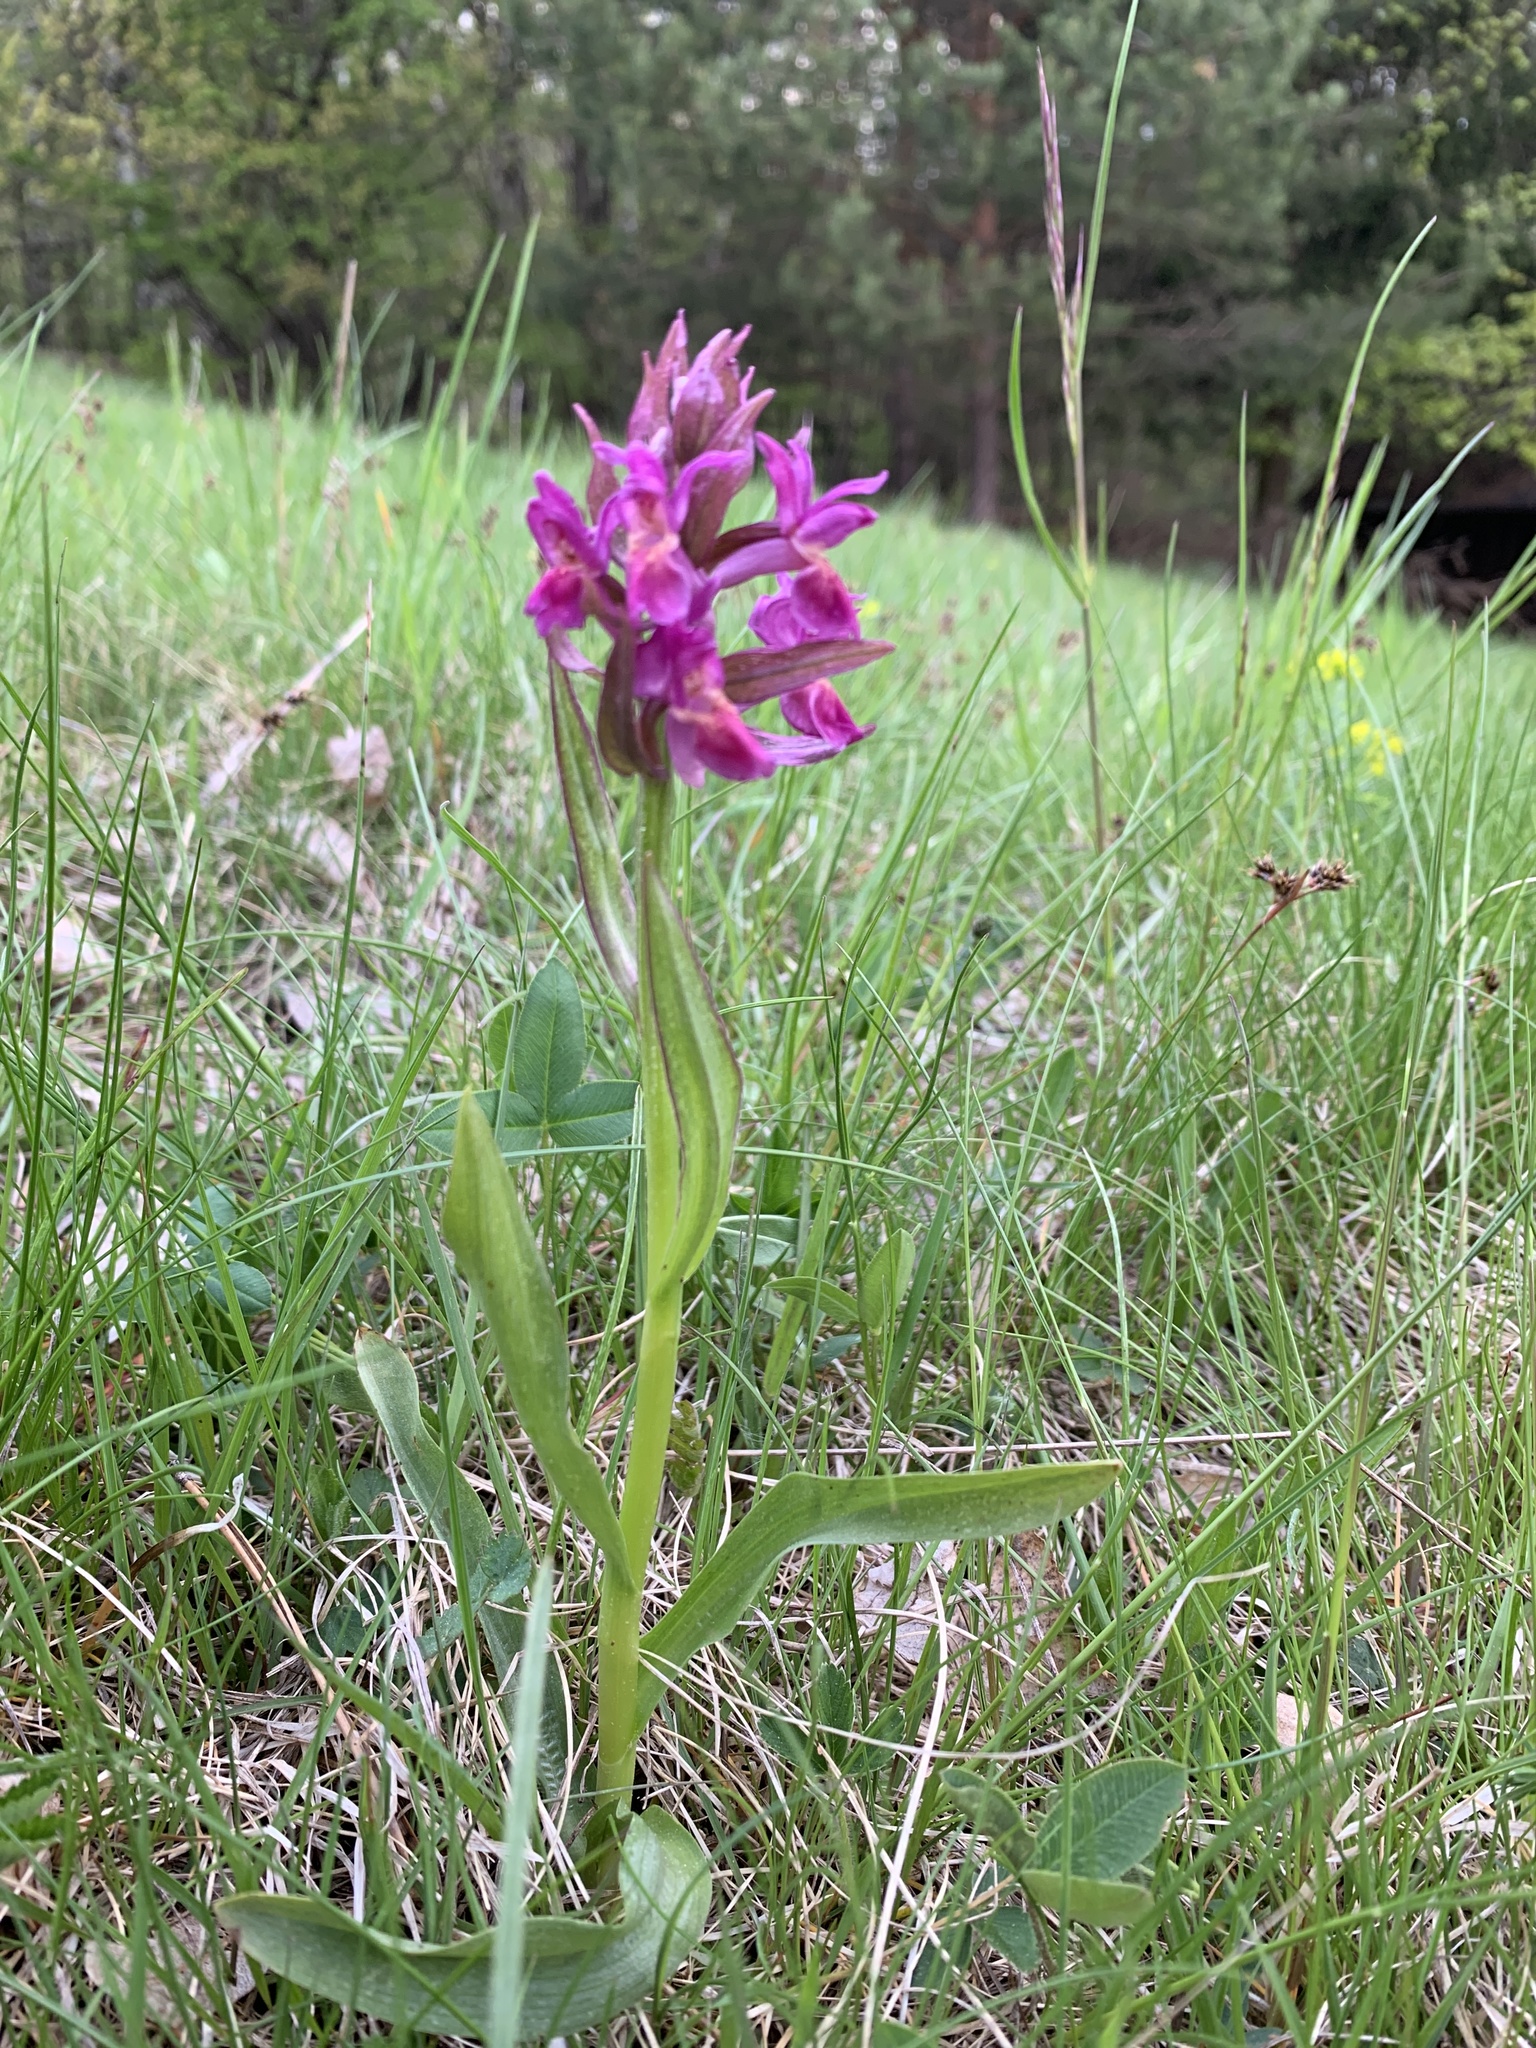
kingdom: Plantae
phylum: Tracheophyta
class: Liliopsida
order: Asparagales
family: Orchidaceae
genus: Dactylorhiza
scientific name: Dactylorhiza sambucina
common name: Elder-flowered orchid
